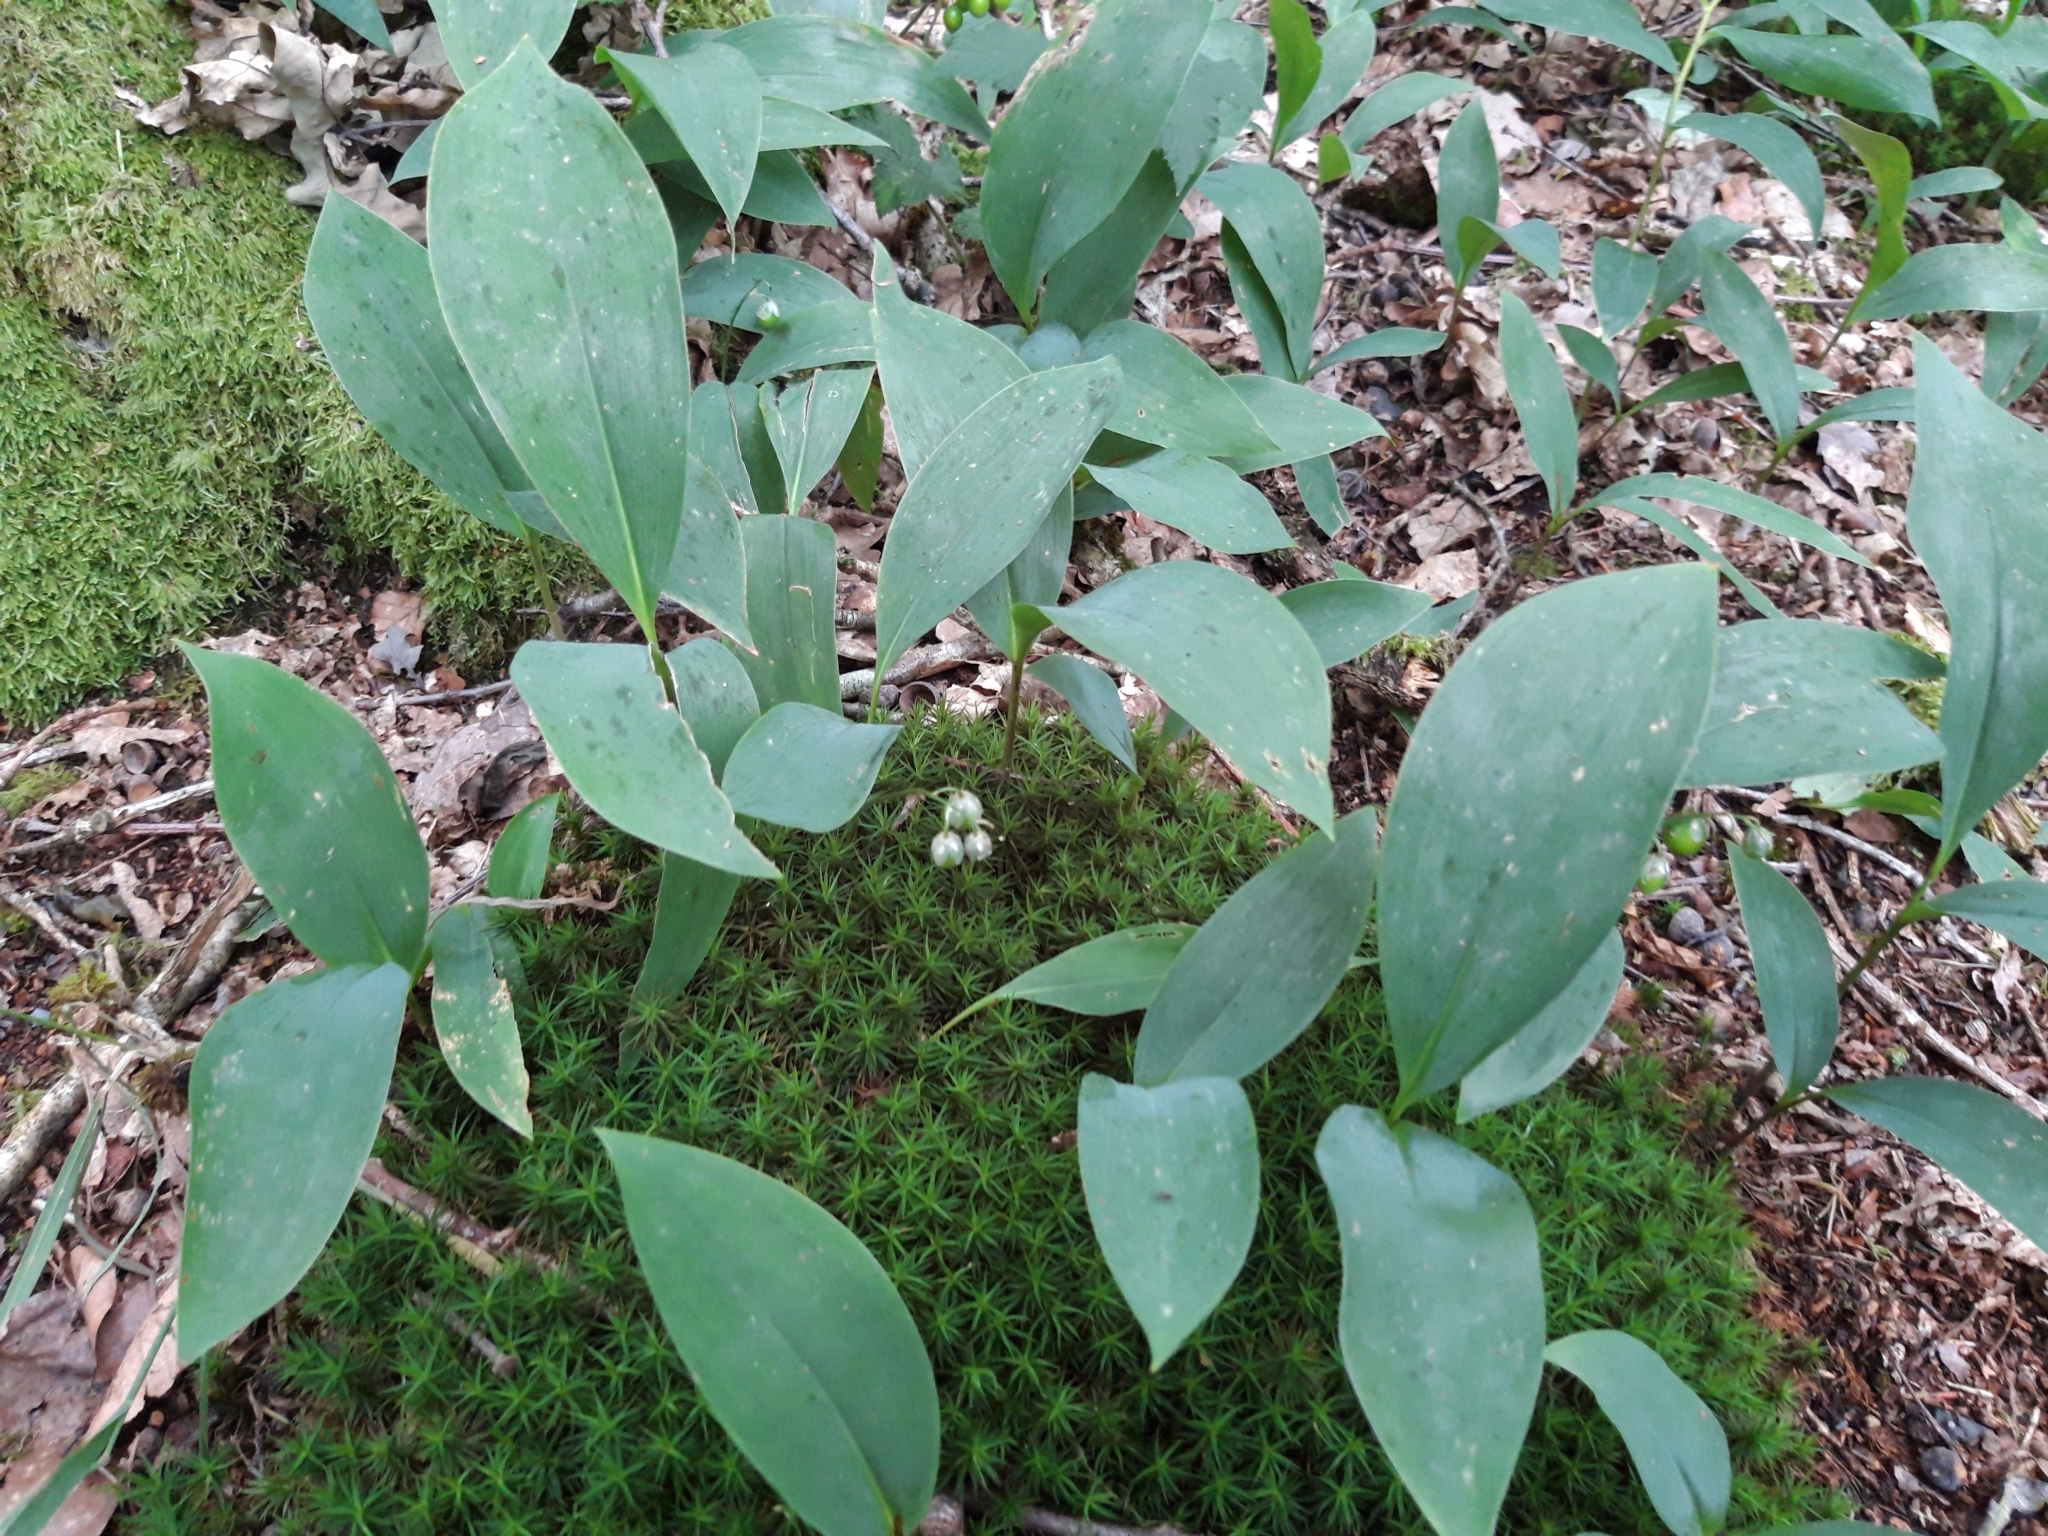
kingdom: Plantae
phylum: Tracheophyta
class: Liliopsida
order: Asparagales
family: Asparagaceae
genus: Convallaria
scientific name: Convallaria majalis
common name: Lily-of-the-valley
